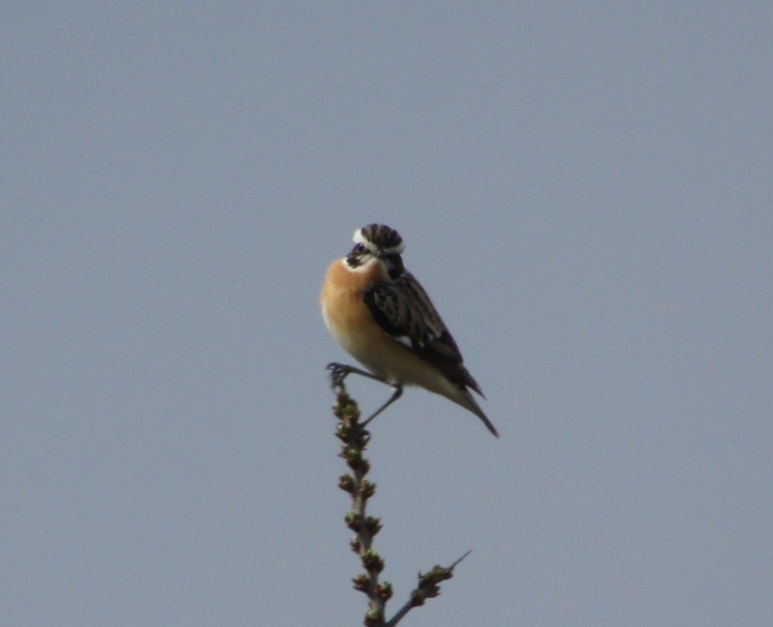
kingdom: Animalia
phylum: Chordata
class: Aves
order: Passeriformes
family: Muscicapidae
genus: Saxicola
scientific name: Saxicola rubetra
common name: Whinchat
